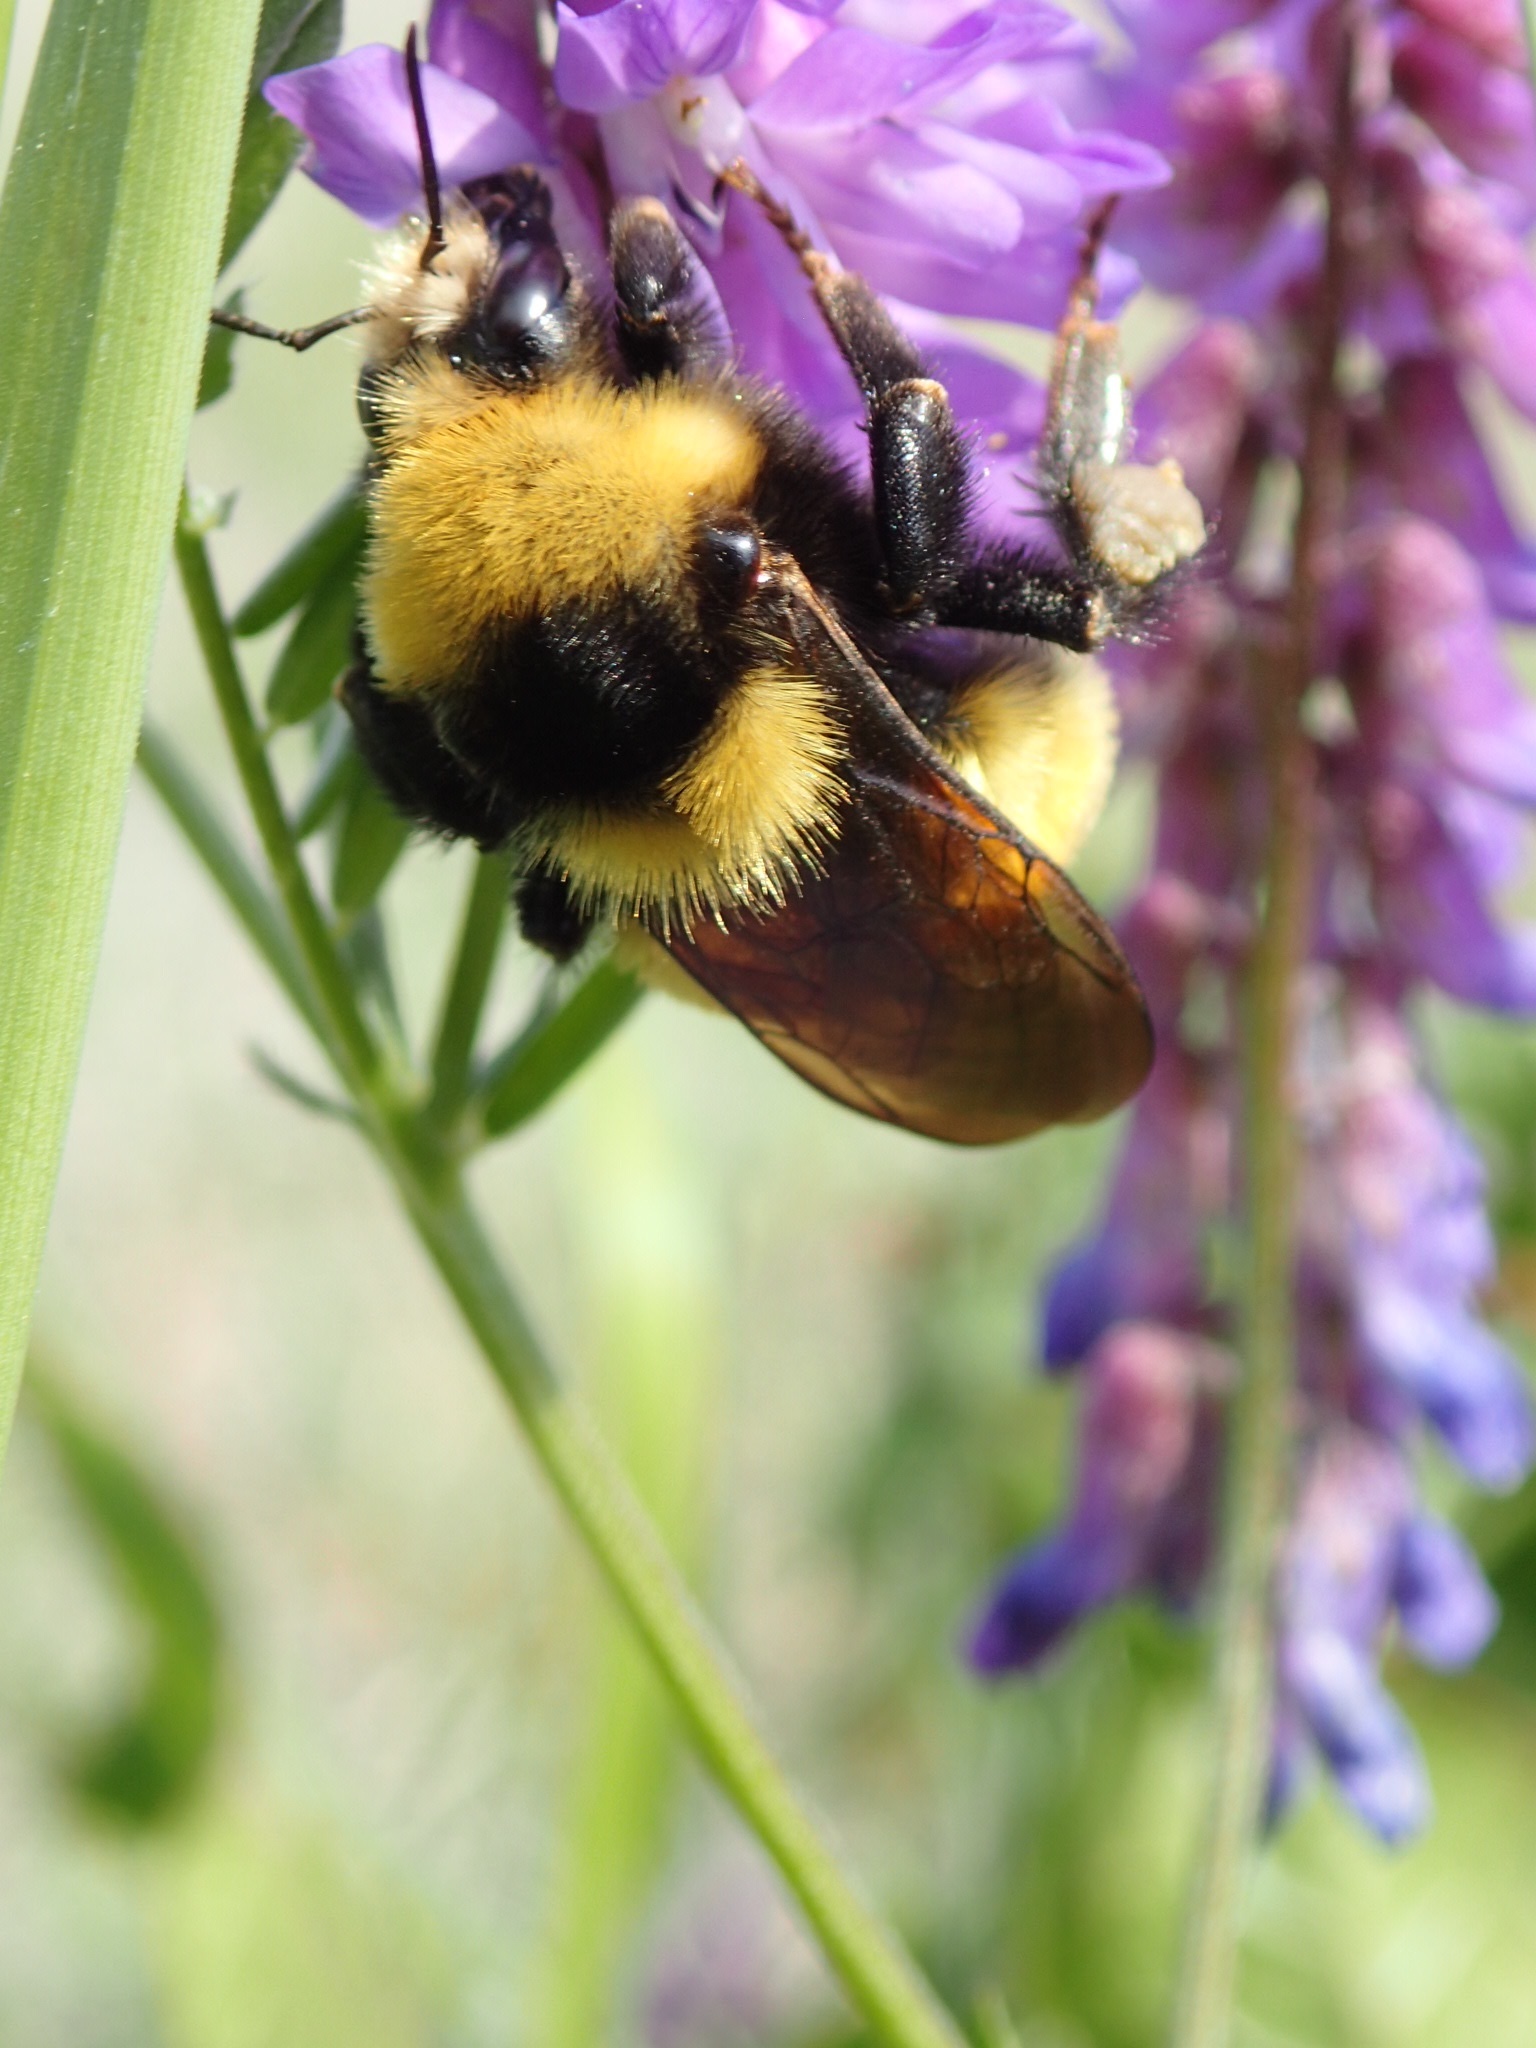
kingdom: Animalia
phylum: Arthropoda
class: Insecta
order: Hymenoptera
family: Apidae
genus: Bombus
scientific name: Bombus borealis
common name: Northern amber bumble bee
